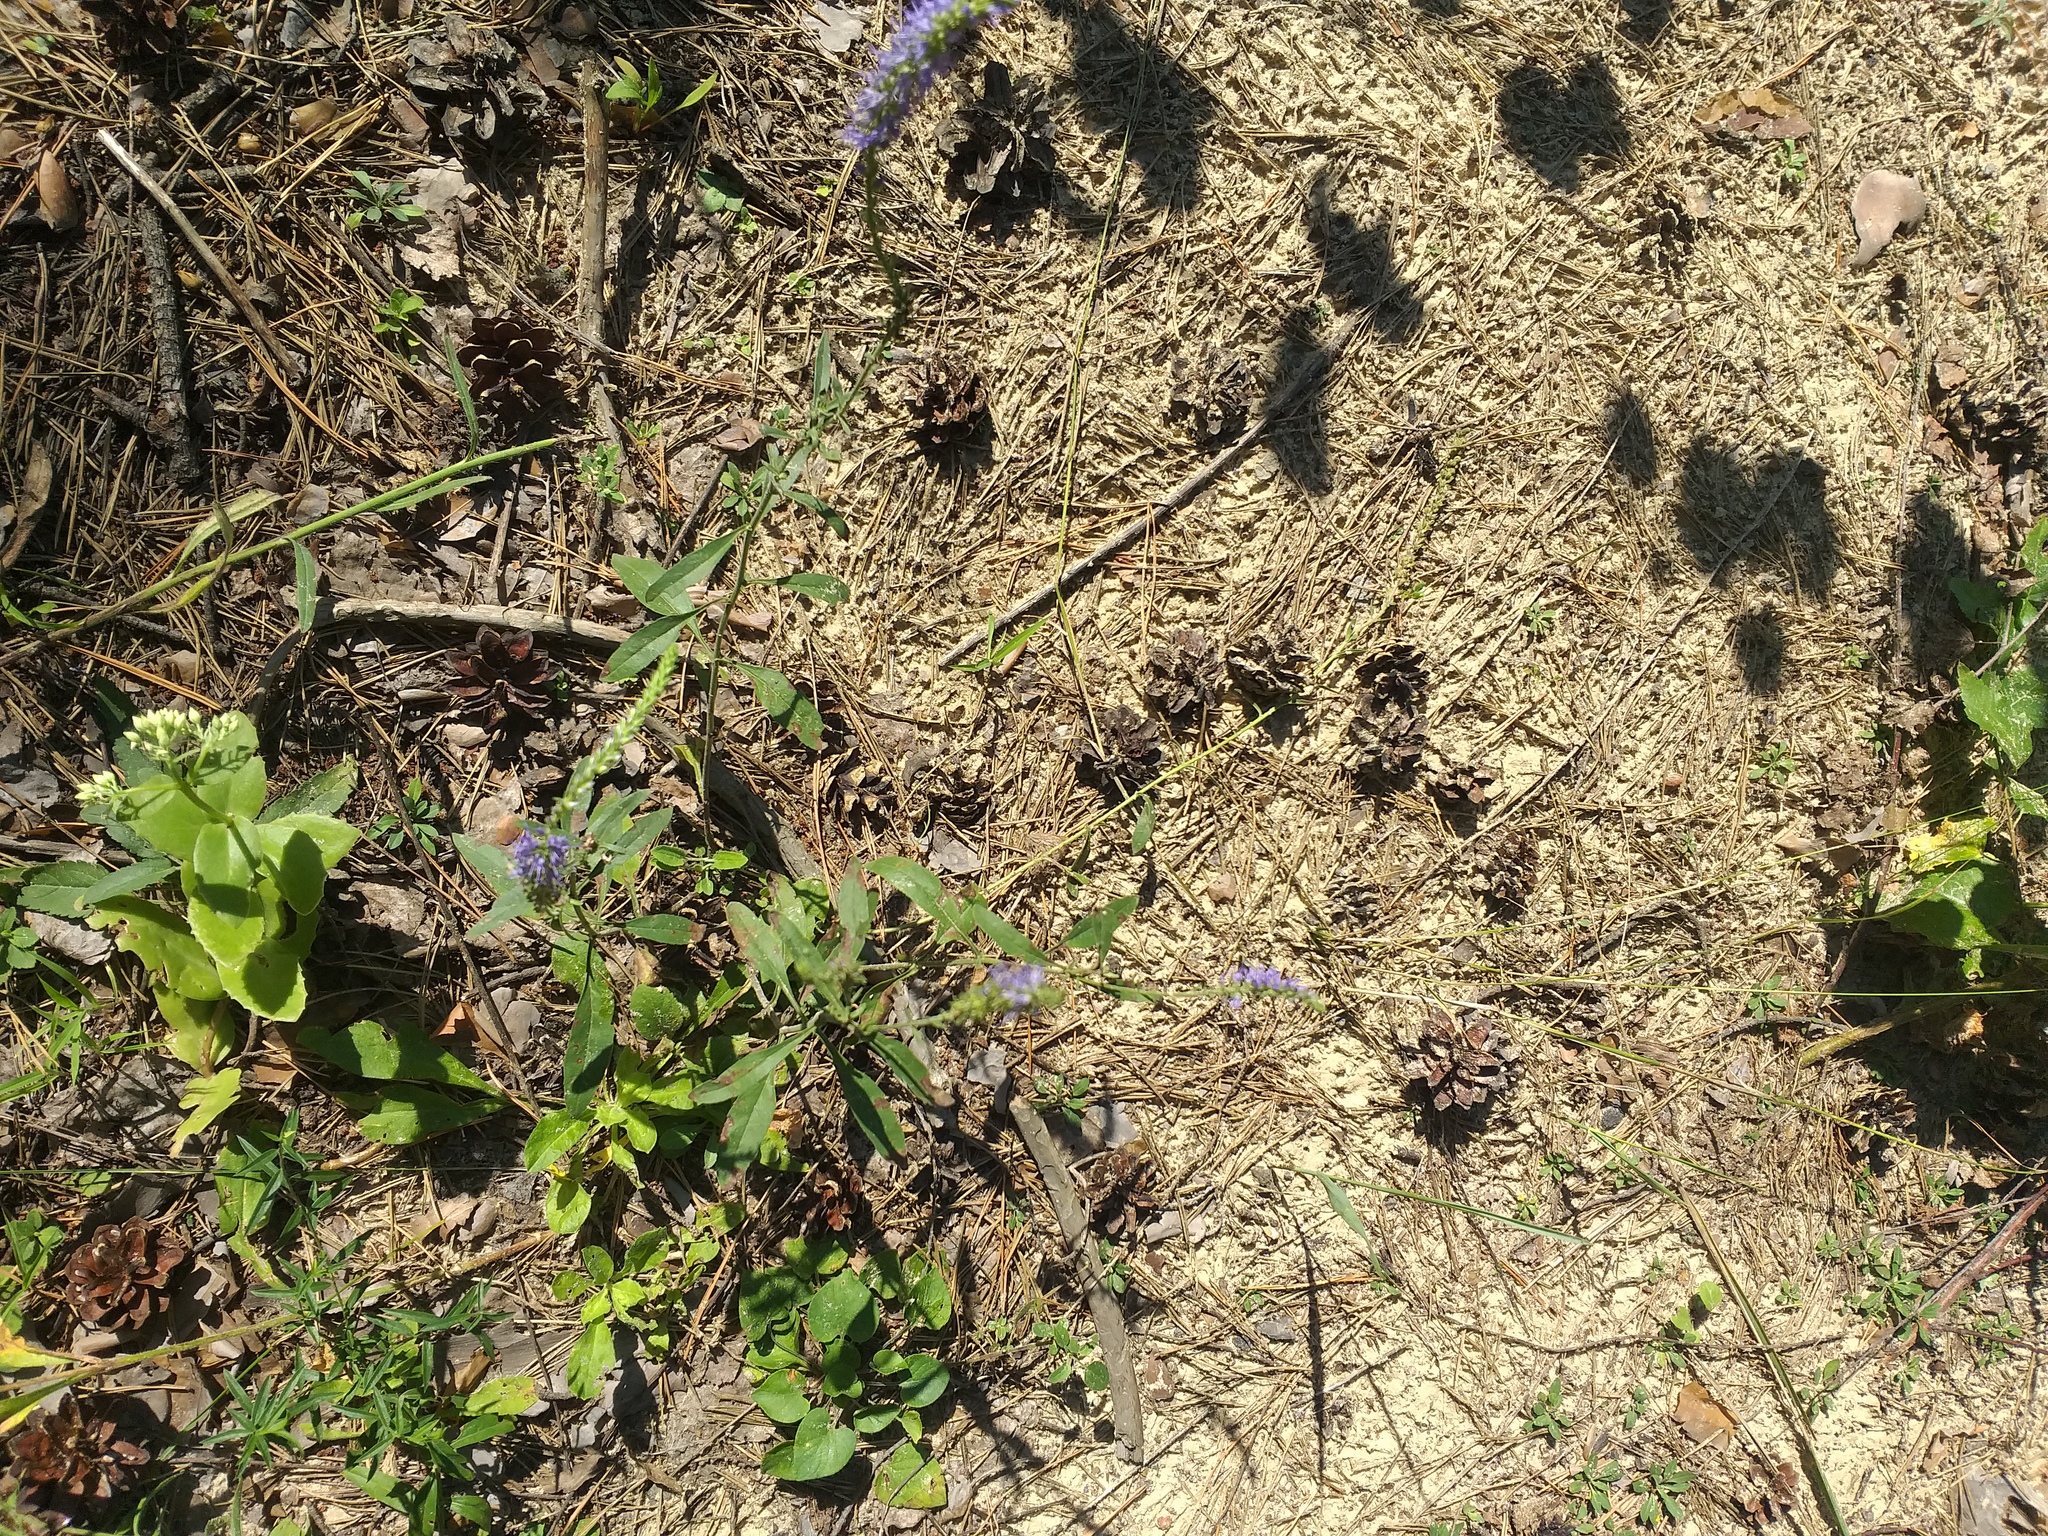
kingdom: Plantae
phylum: Tracheophyta
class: Magnoliopsida
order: Lamiales
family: Plantaginaceae
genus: Veronica
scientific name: Veronica spicata
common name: Spiked speedwell
